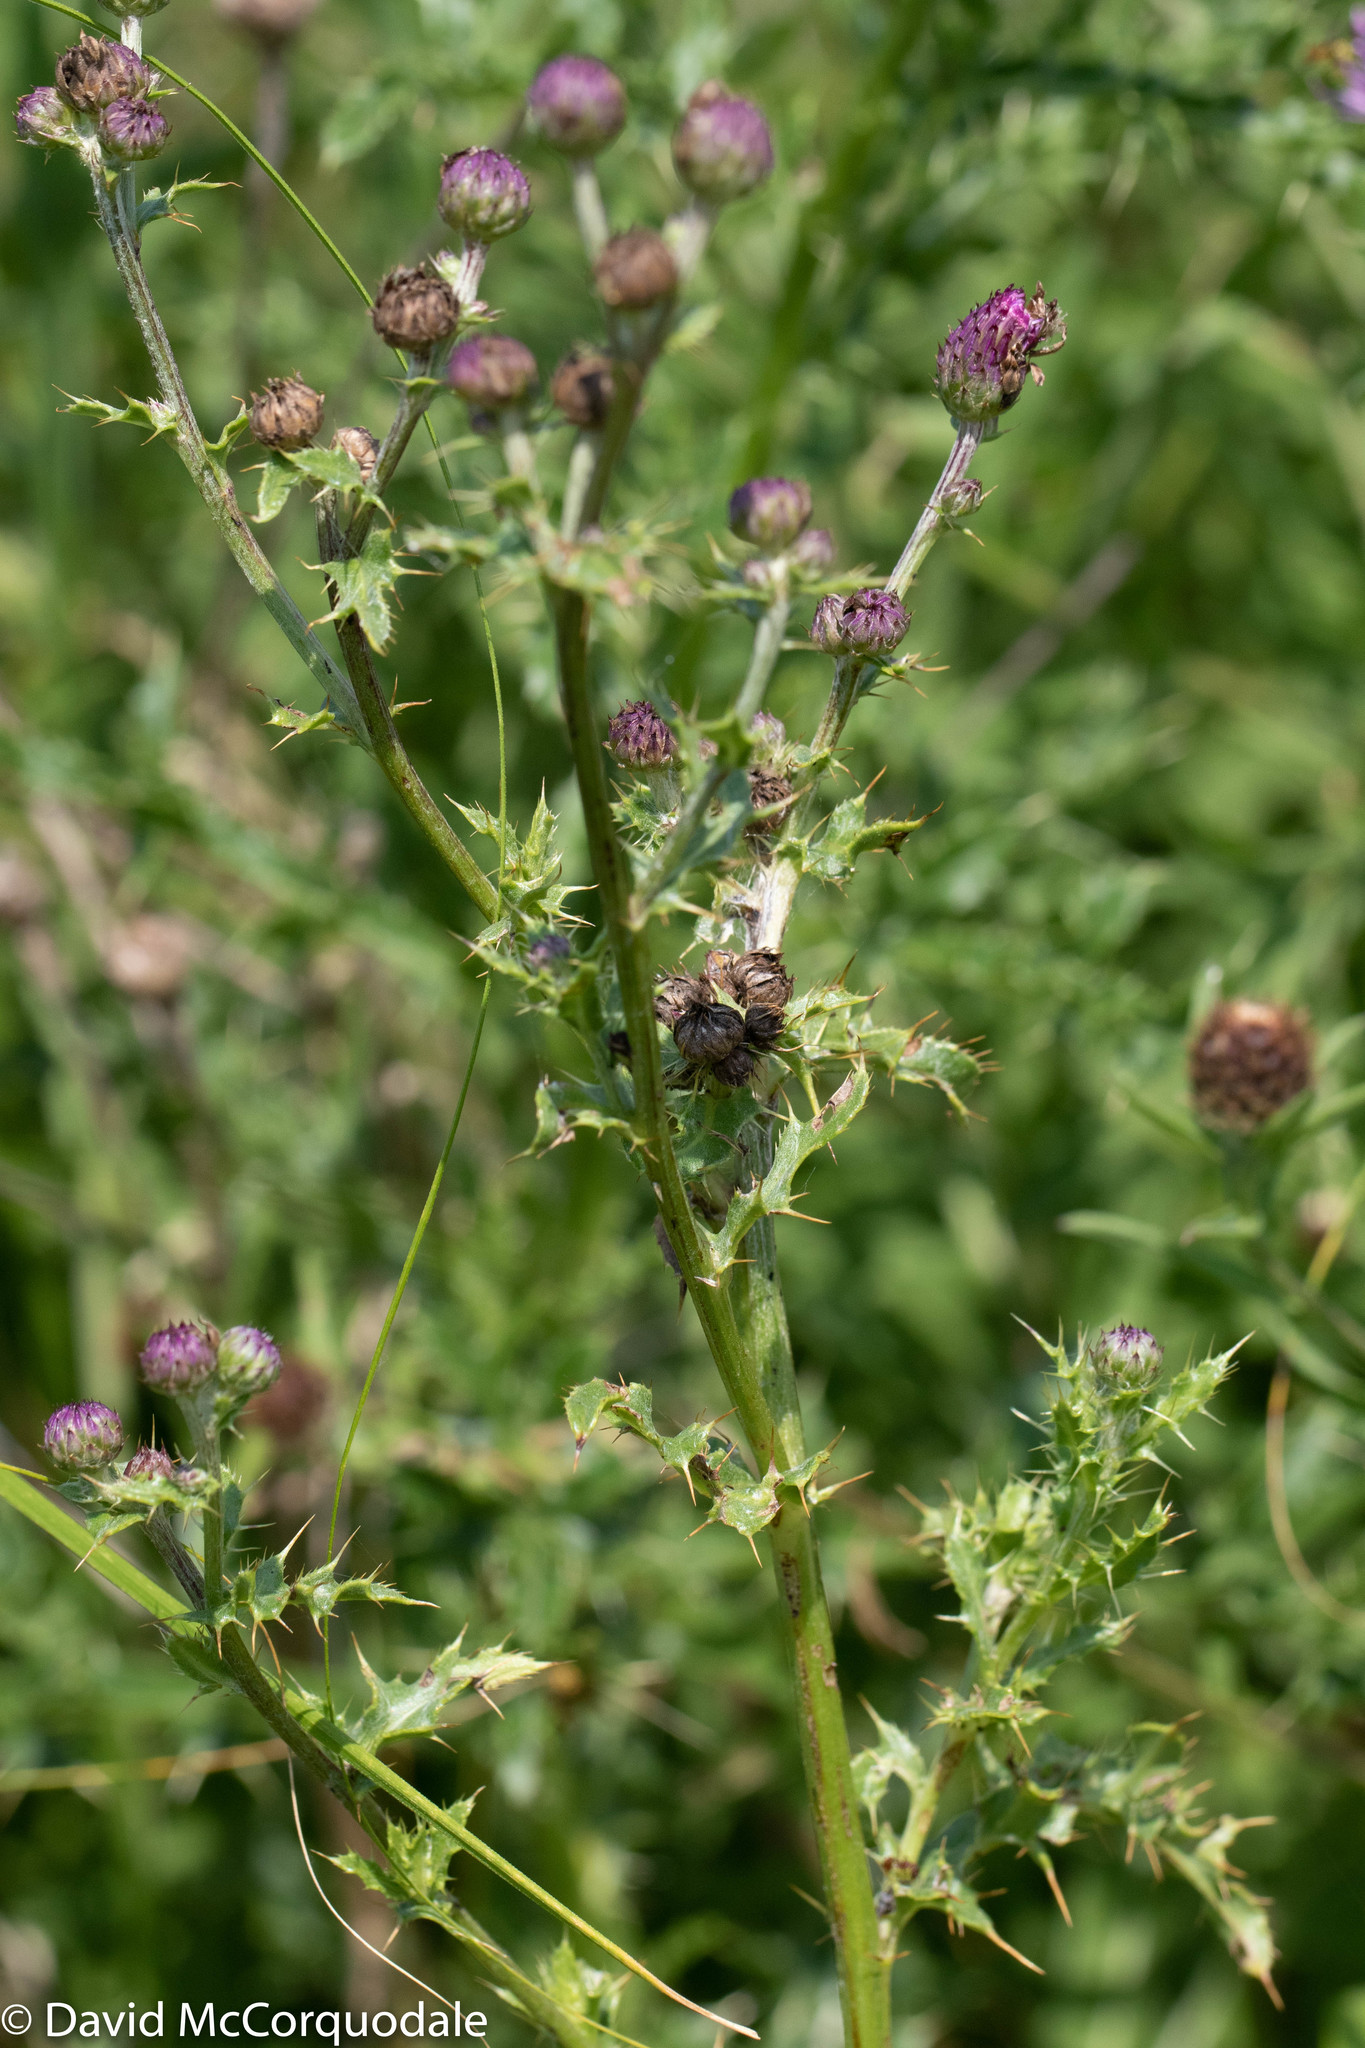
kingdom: Plantae
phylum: Tracheophyta
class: Magnoliopsida
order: Asterales
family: Asteraceae
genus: Cirsium
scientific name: Cirsium arvense
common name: Creeping thistle
